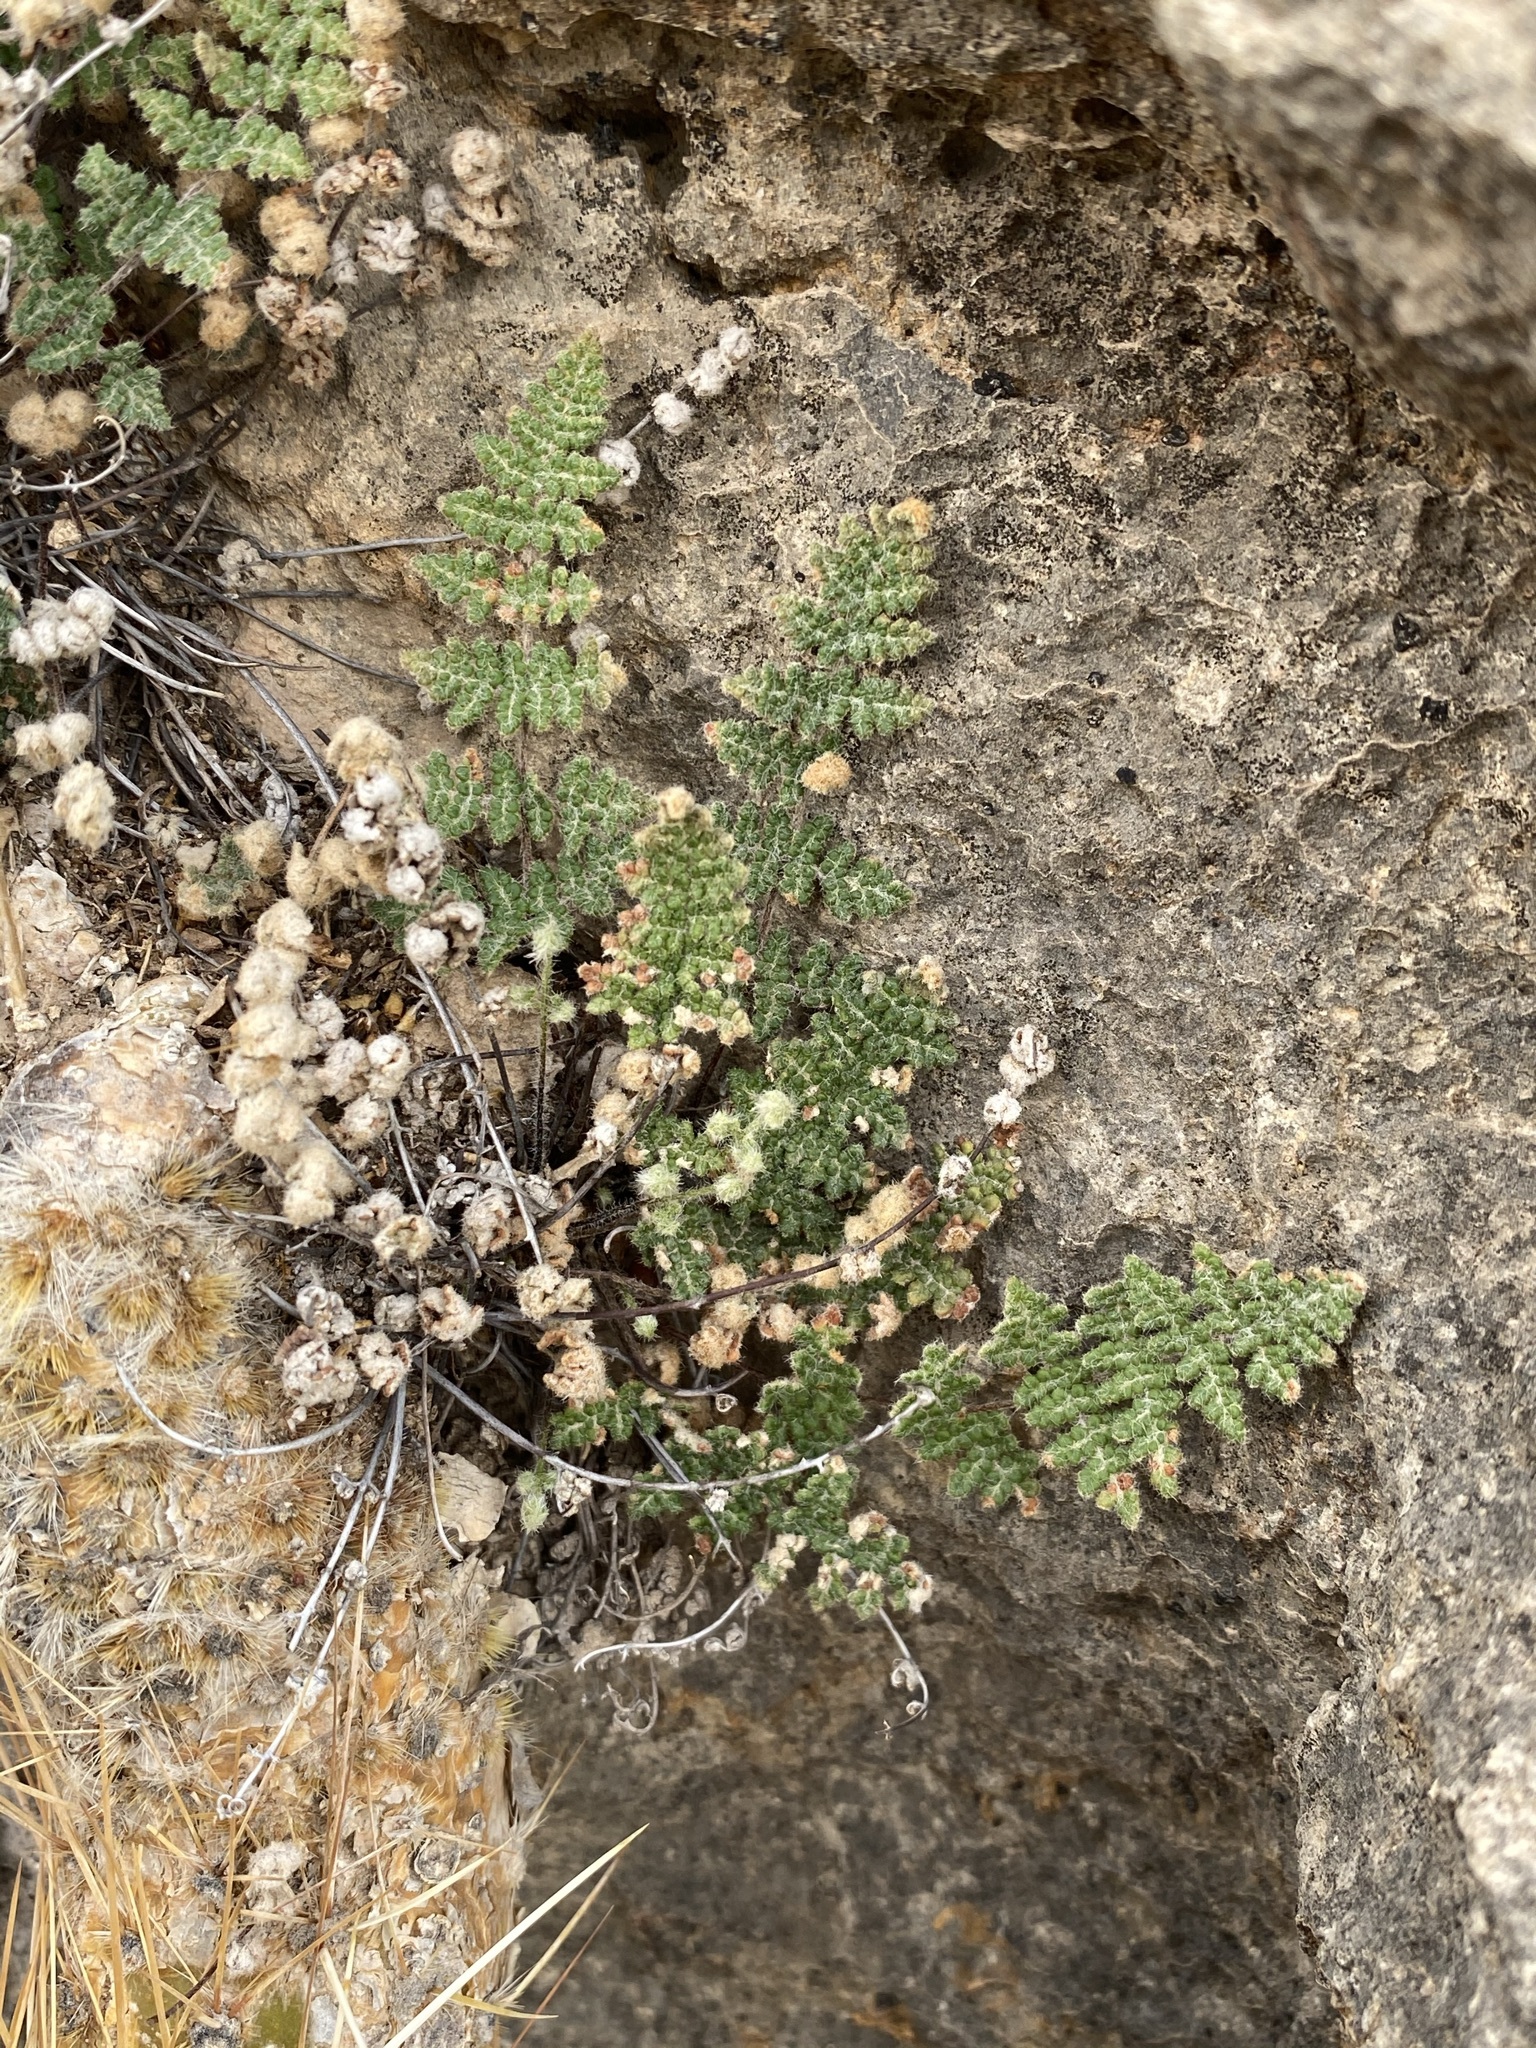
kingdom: Plantae
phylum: Tracheophyta
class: Polypodiopsida
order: Polypodiales
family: Pteridaceae
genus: Myriopteris
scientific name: Myriopteris gracilis
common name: Fee's lip fern
